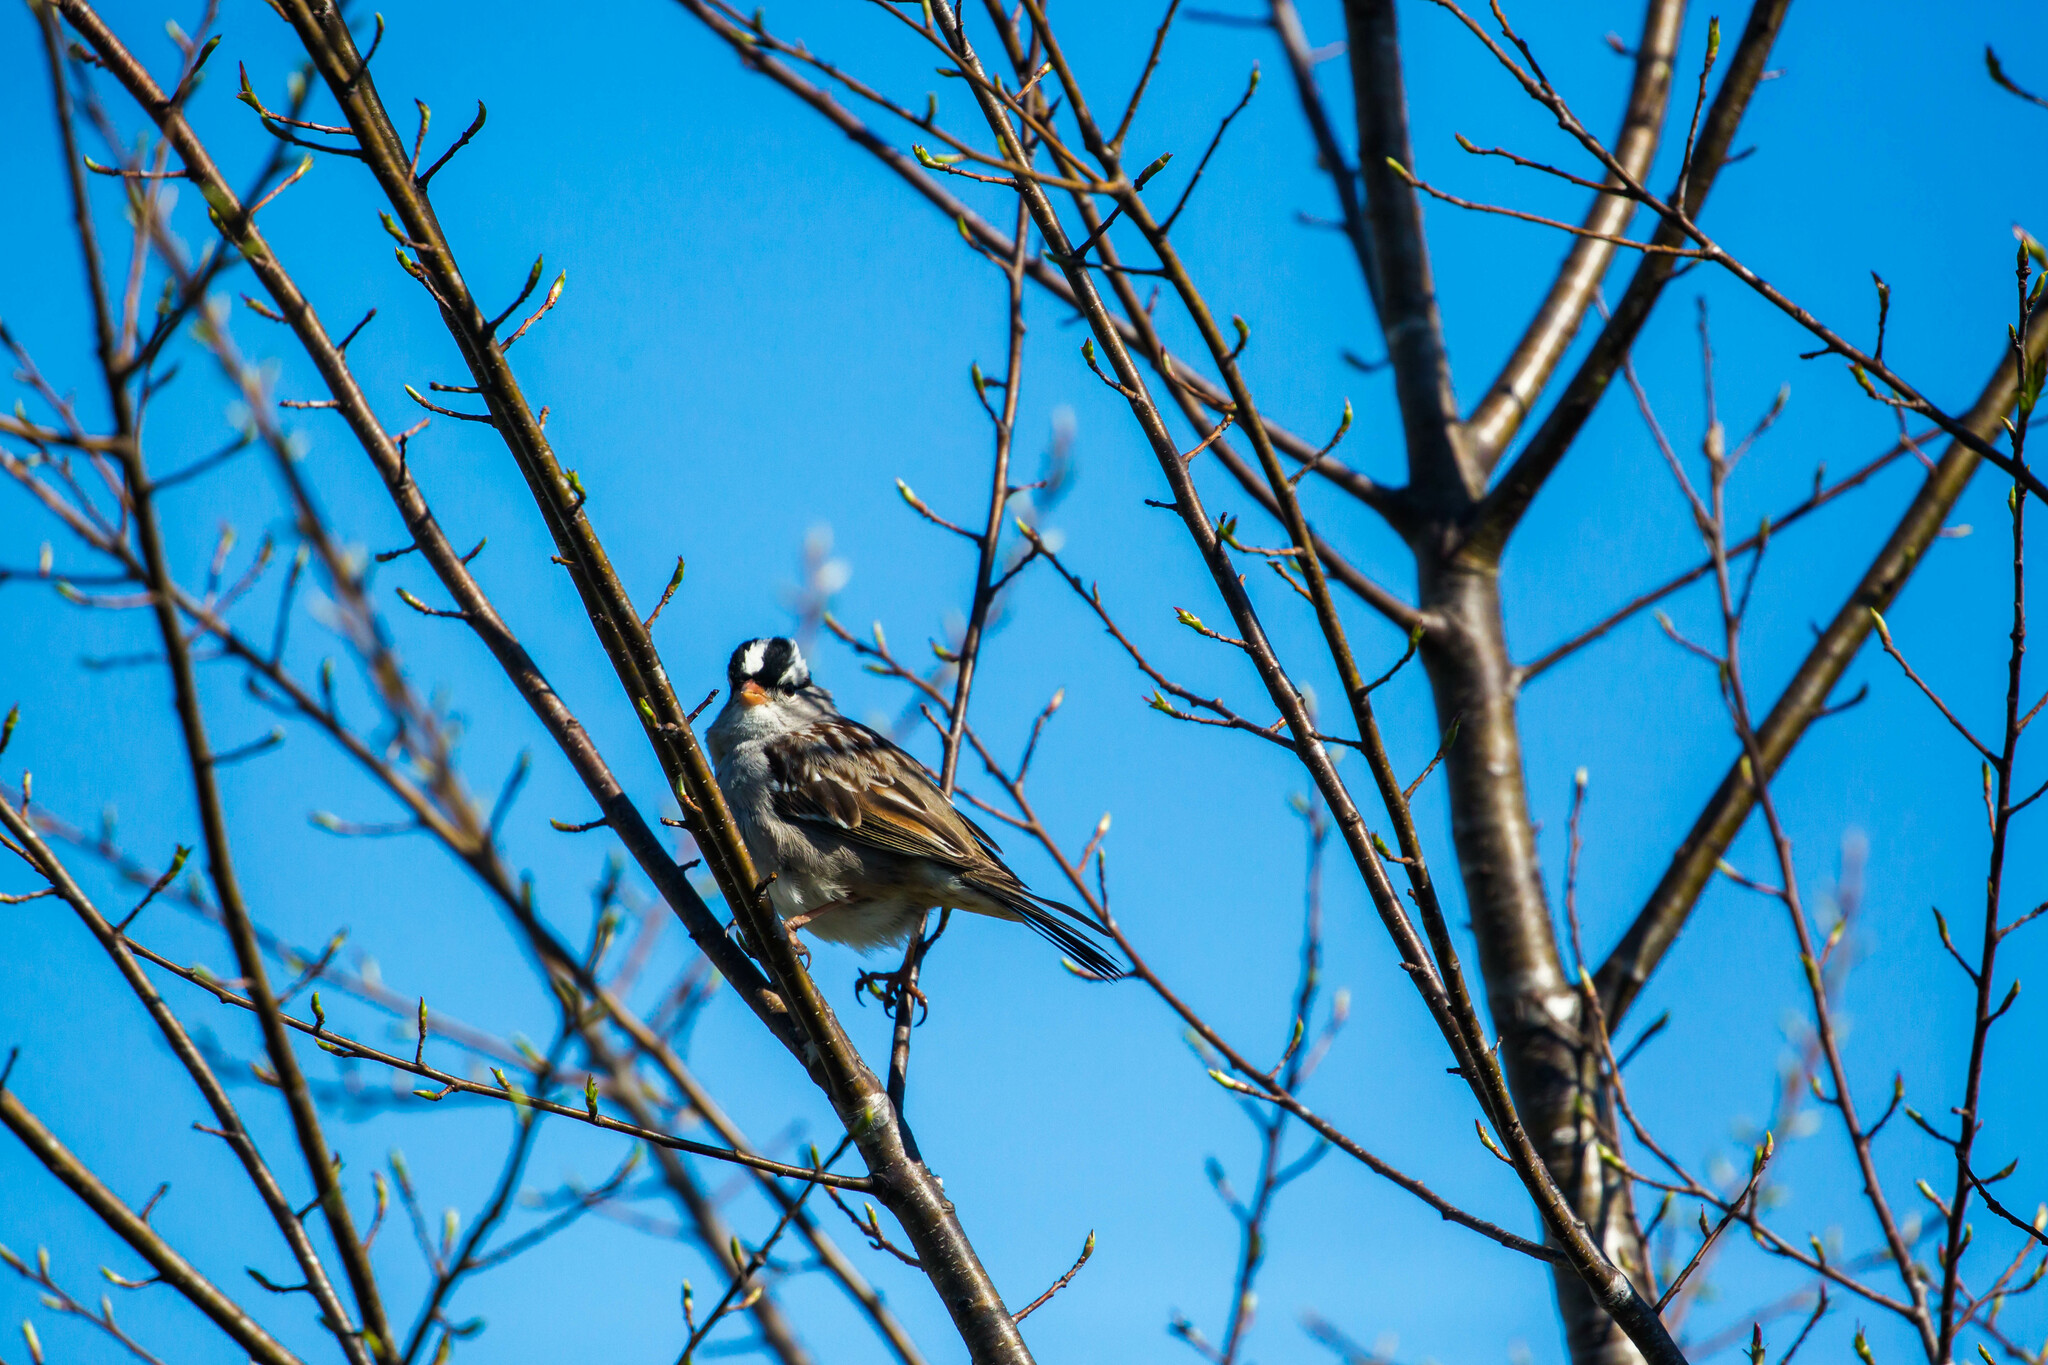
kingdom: Animalia
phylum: Chordata
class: Aves
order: Passeriformes
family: Passerellidae
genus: Zonotrichia
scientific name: Zonotrichia leucophrys
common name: White-crowned sparrow
